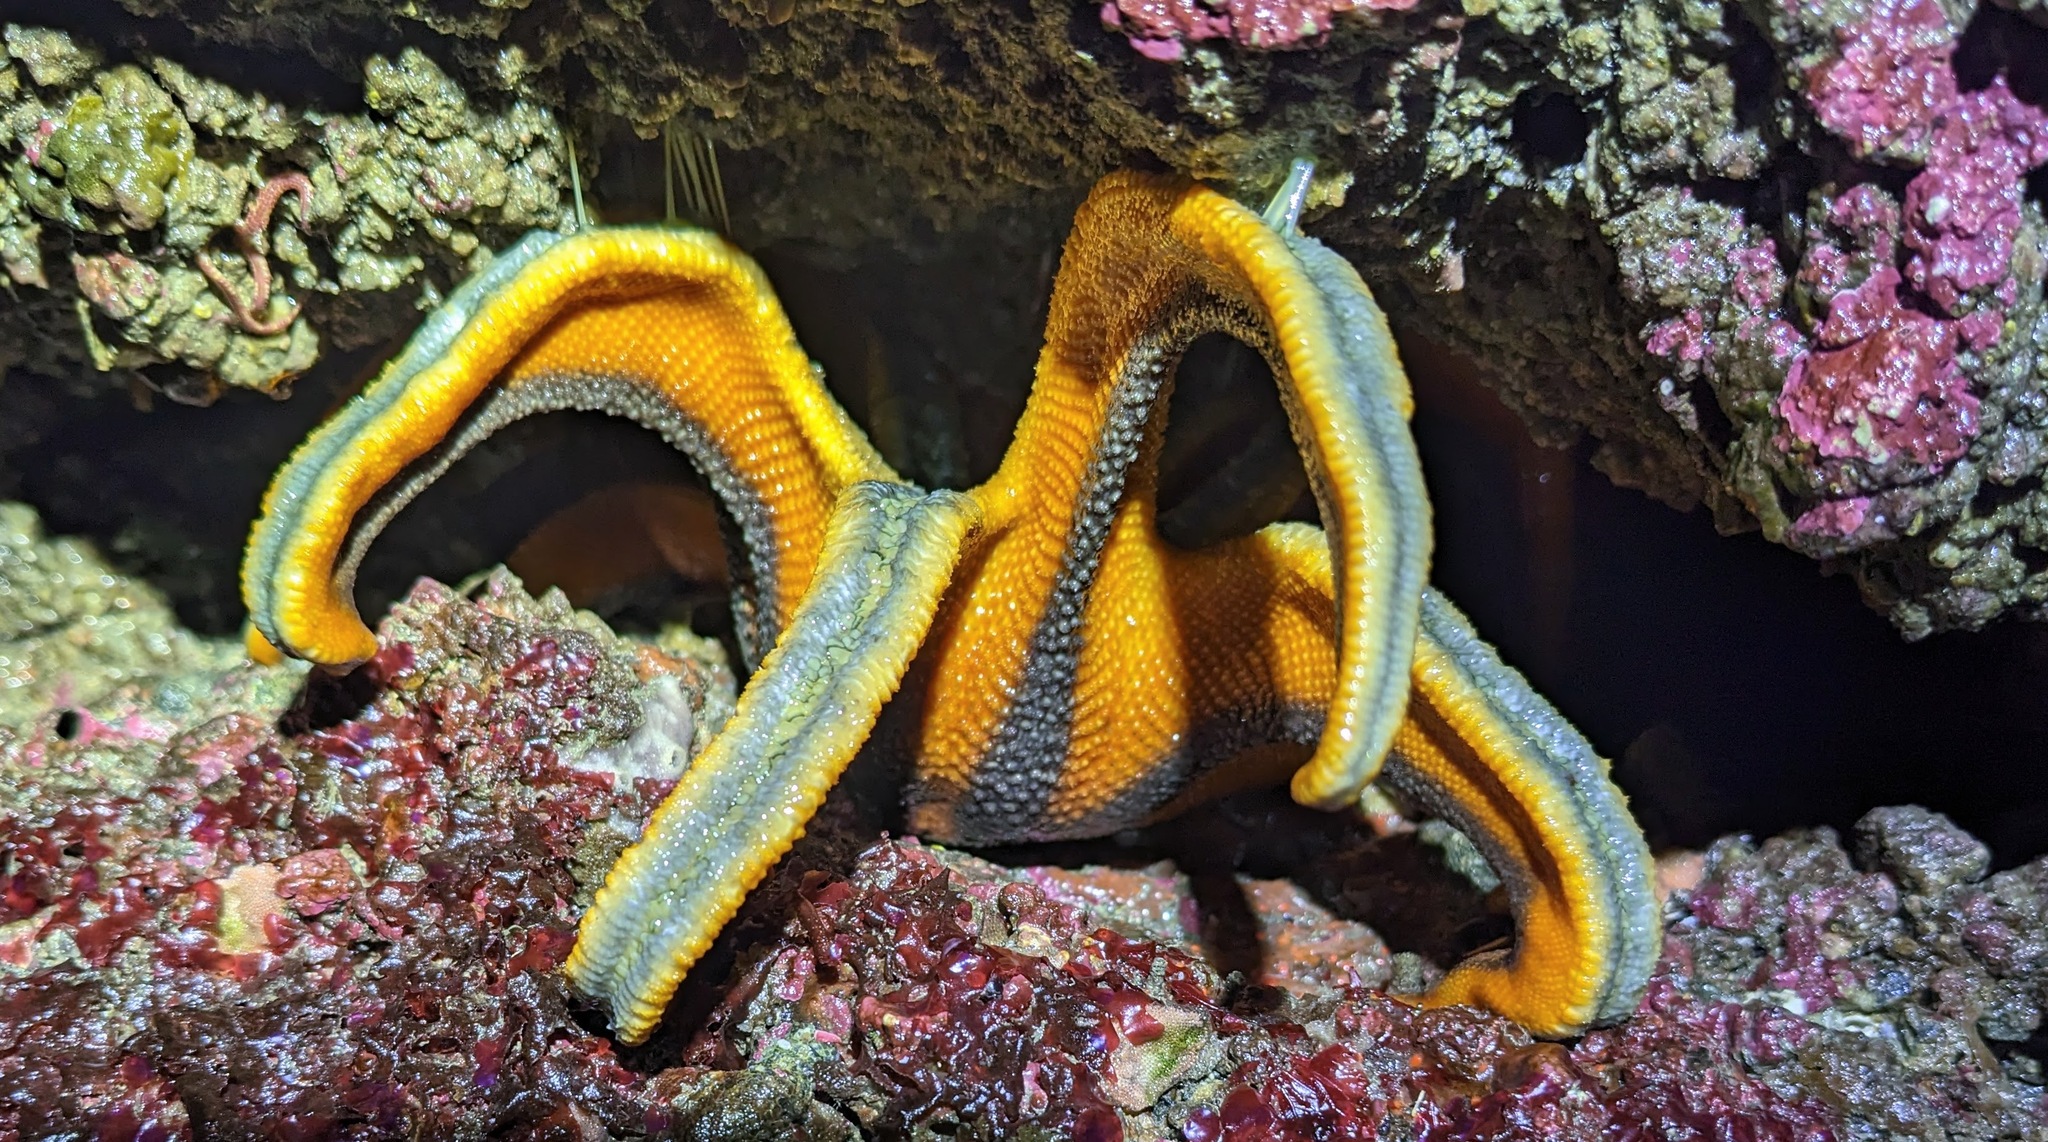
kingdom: Animalia
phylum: Echinodermata
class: Asteroidea
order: Valvatida
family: Solasteridae
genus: Solaster
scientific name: Solaster stimpsoni
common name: Orange sun star
